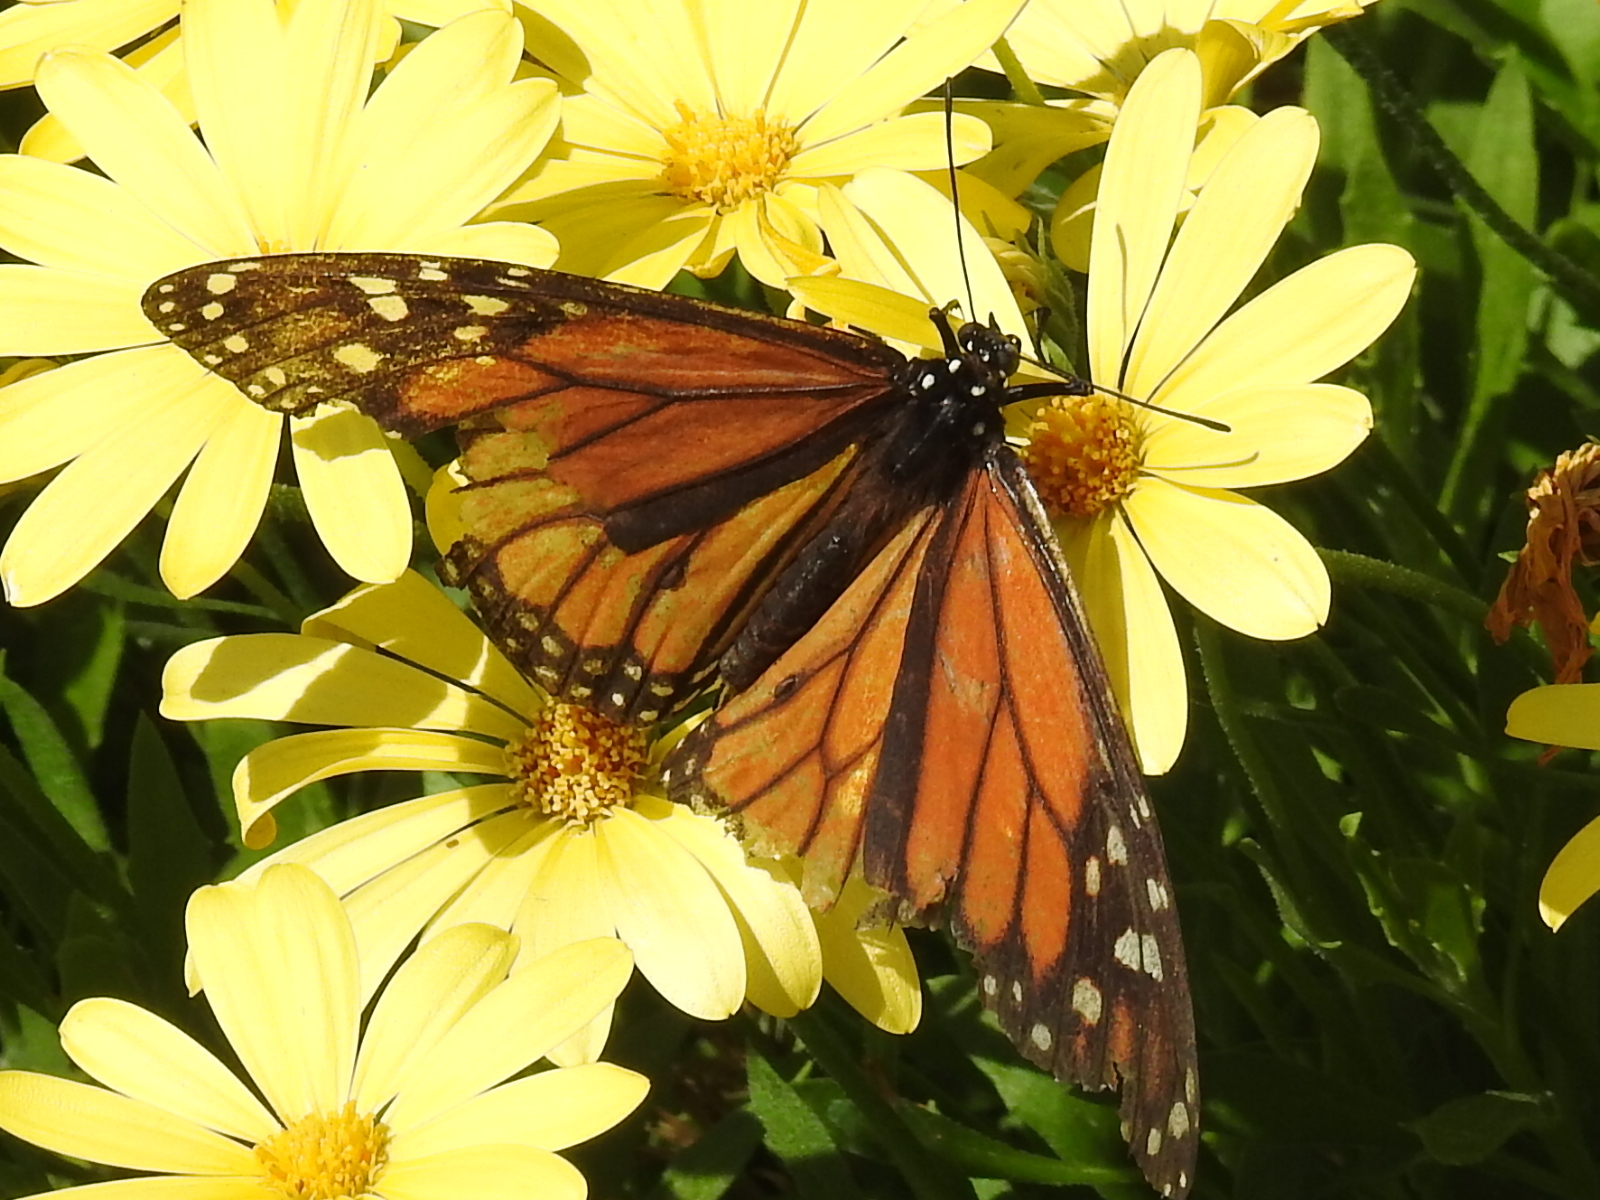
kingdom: Animalia
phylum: Arthropoda
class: Insecta
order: Lepidoptera
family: Nymphalidae
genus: Danaus
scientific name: Danaus plexippus
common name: Monarch
